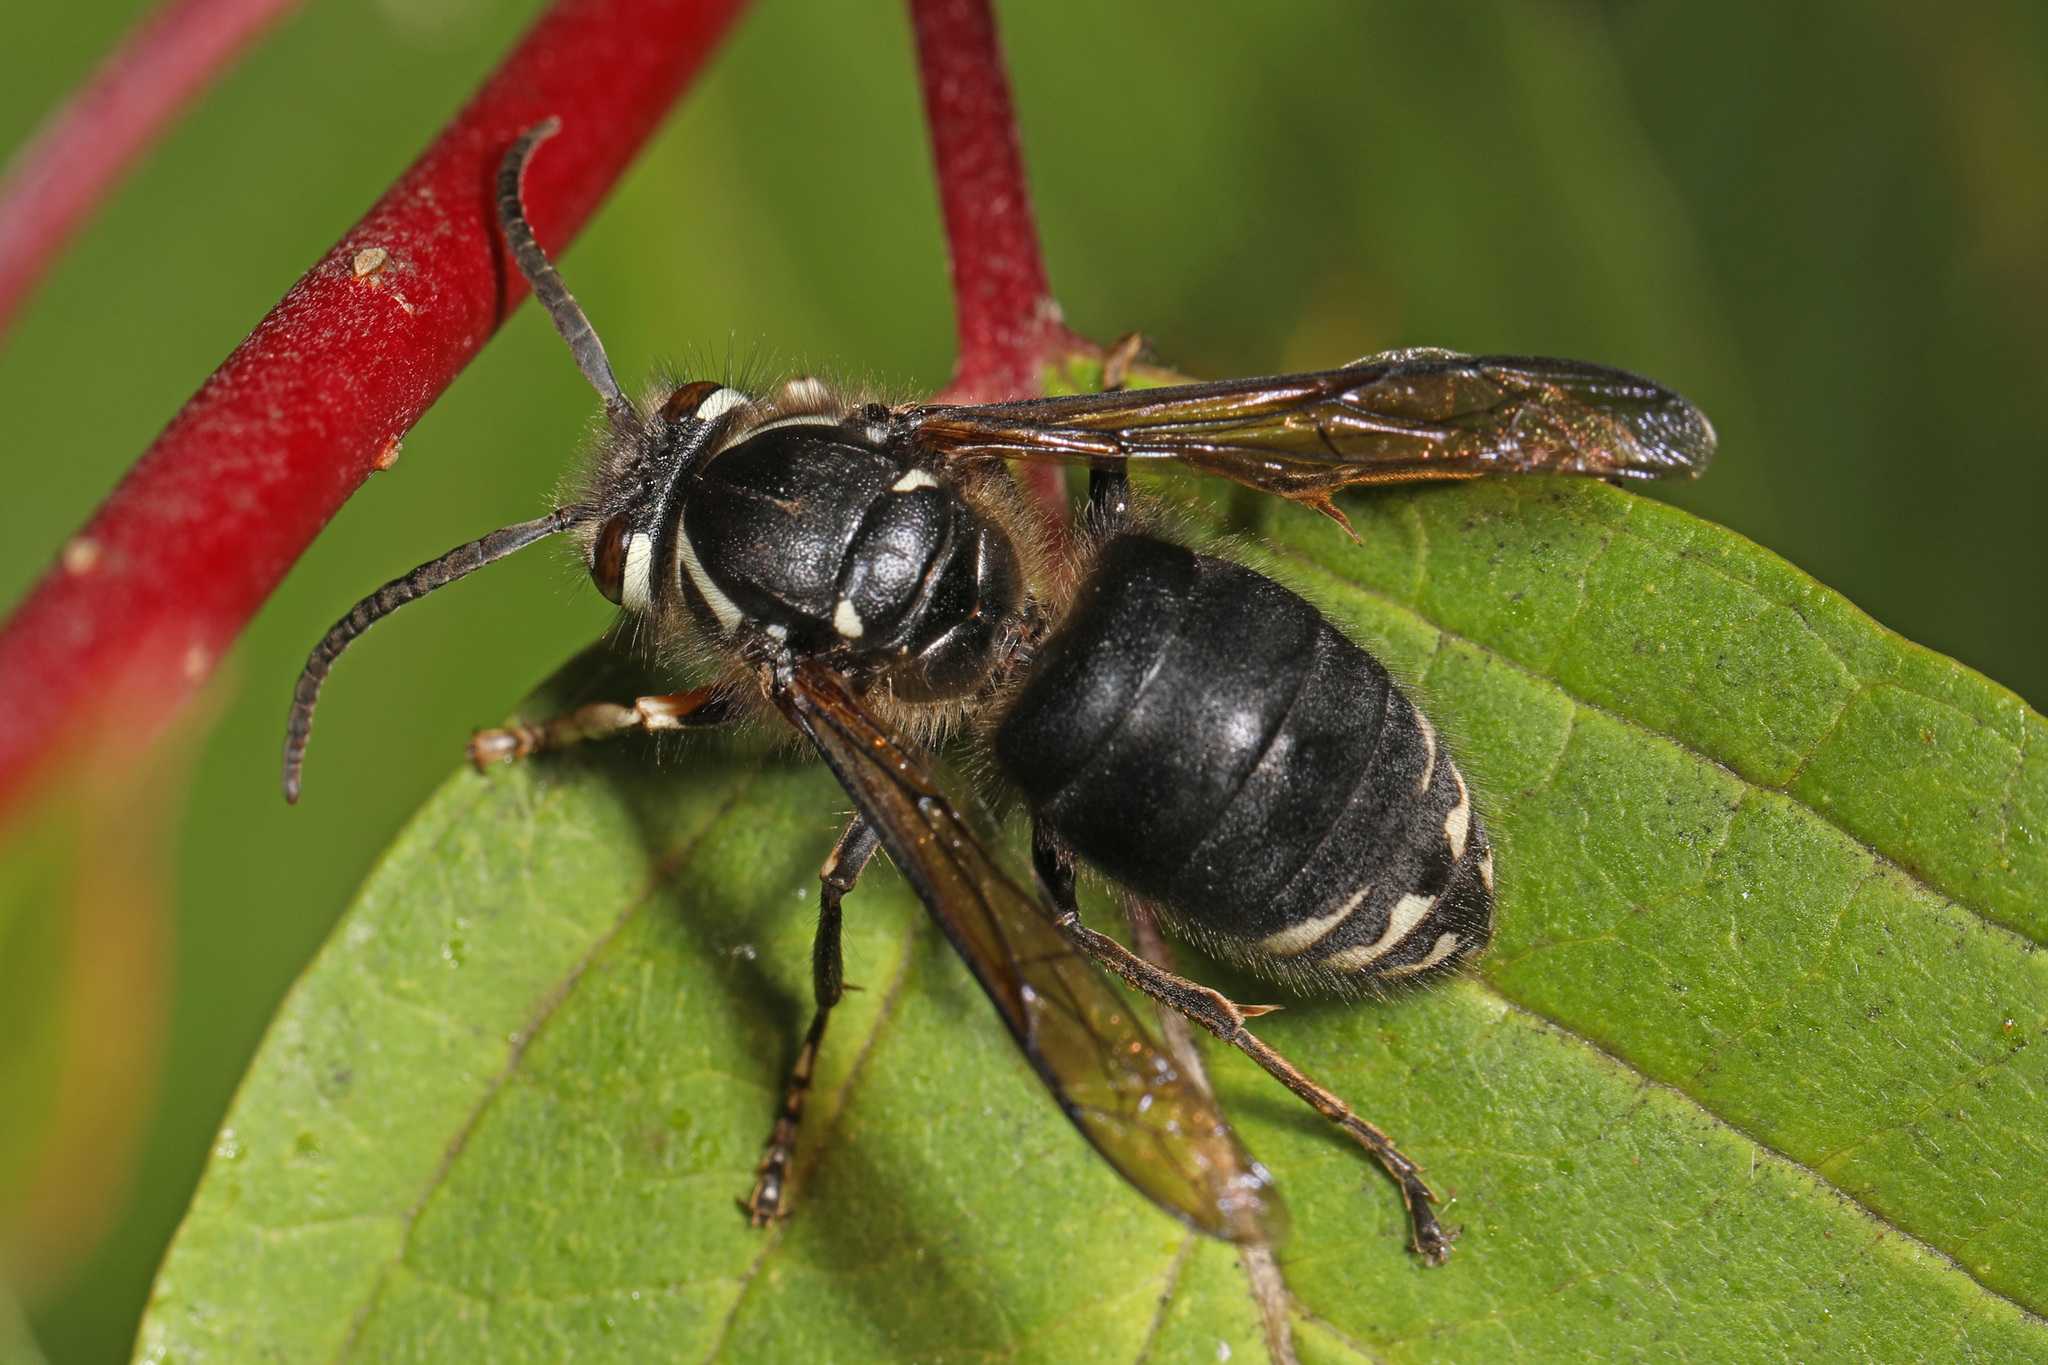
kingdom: Animalia
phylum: Arthropoda
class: Insecta
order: Hymenoptera
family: Vespidae
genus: Dolichovespula
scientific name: Dolichovespula maculata
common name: Bald-faced hornet
